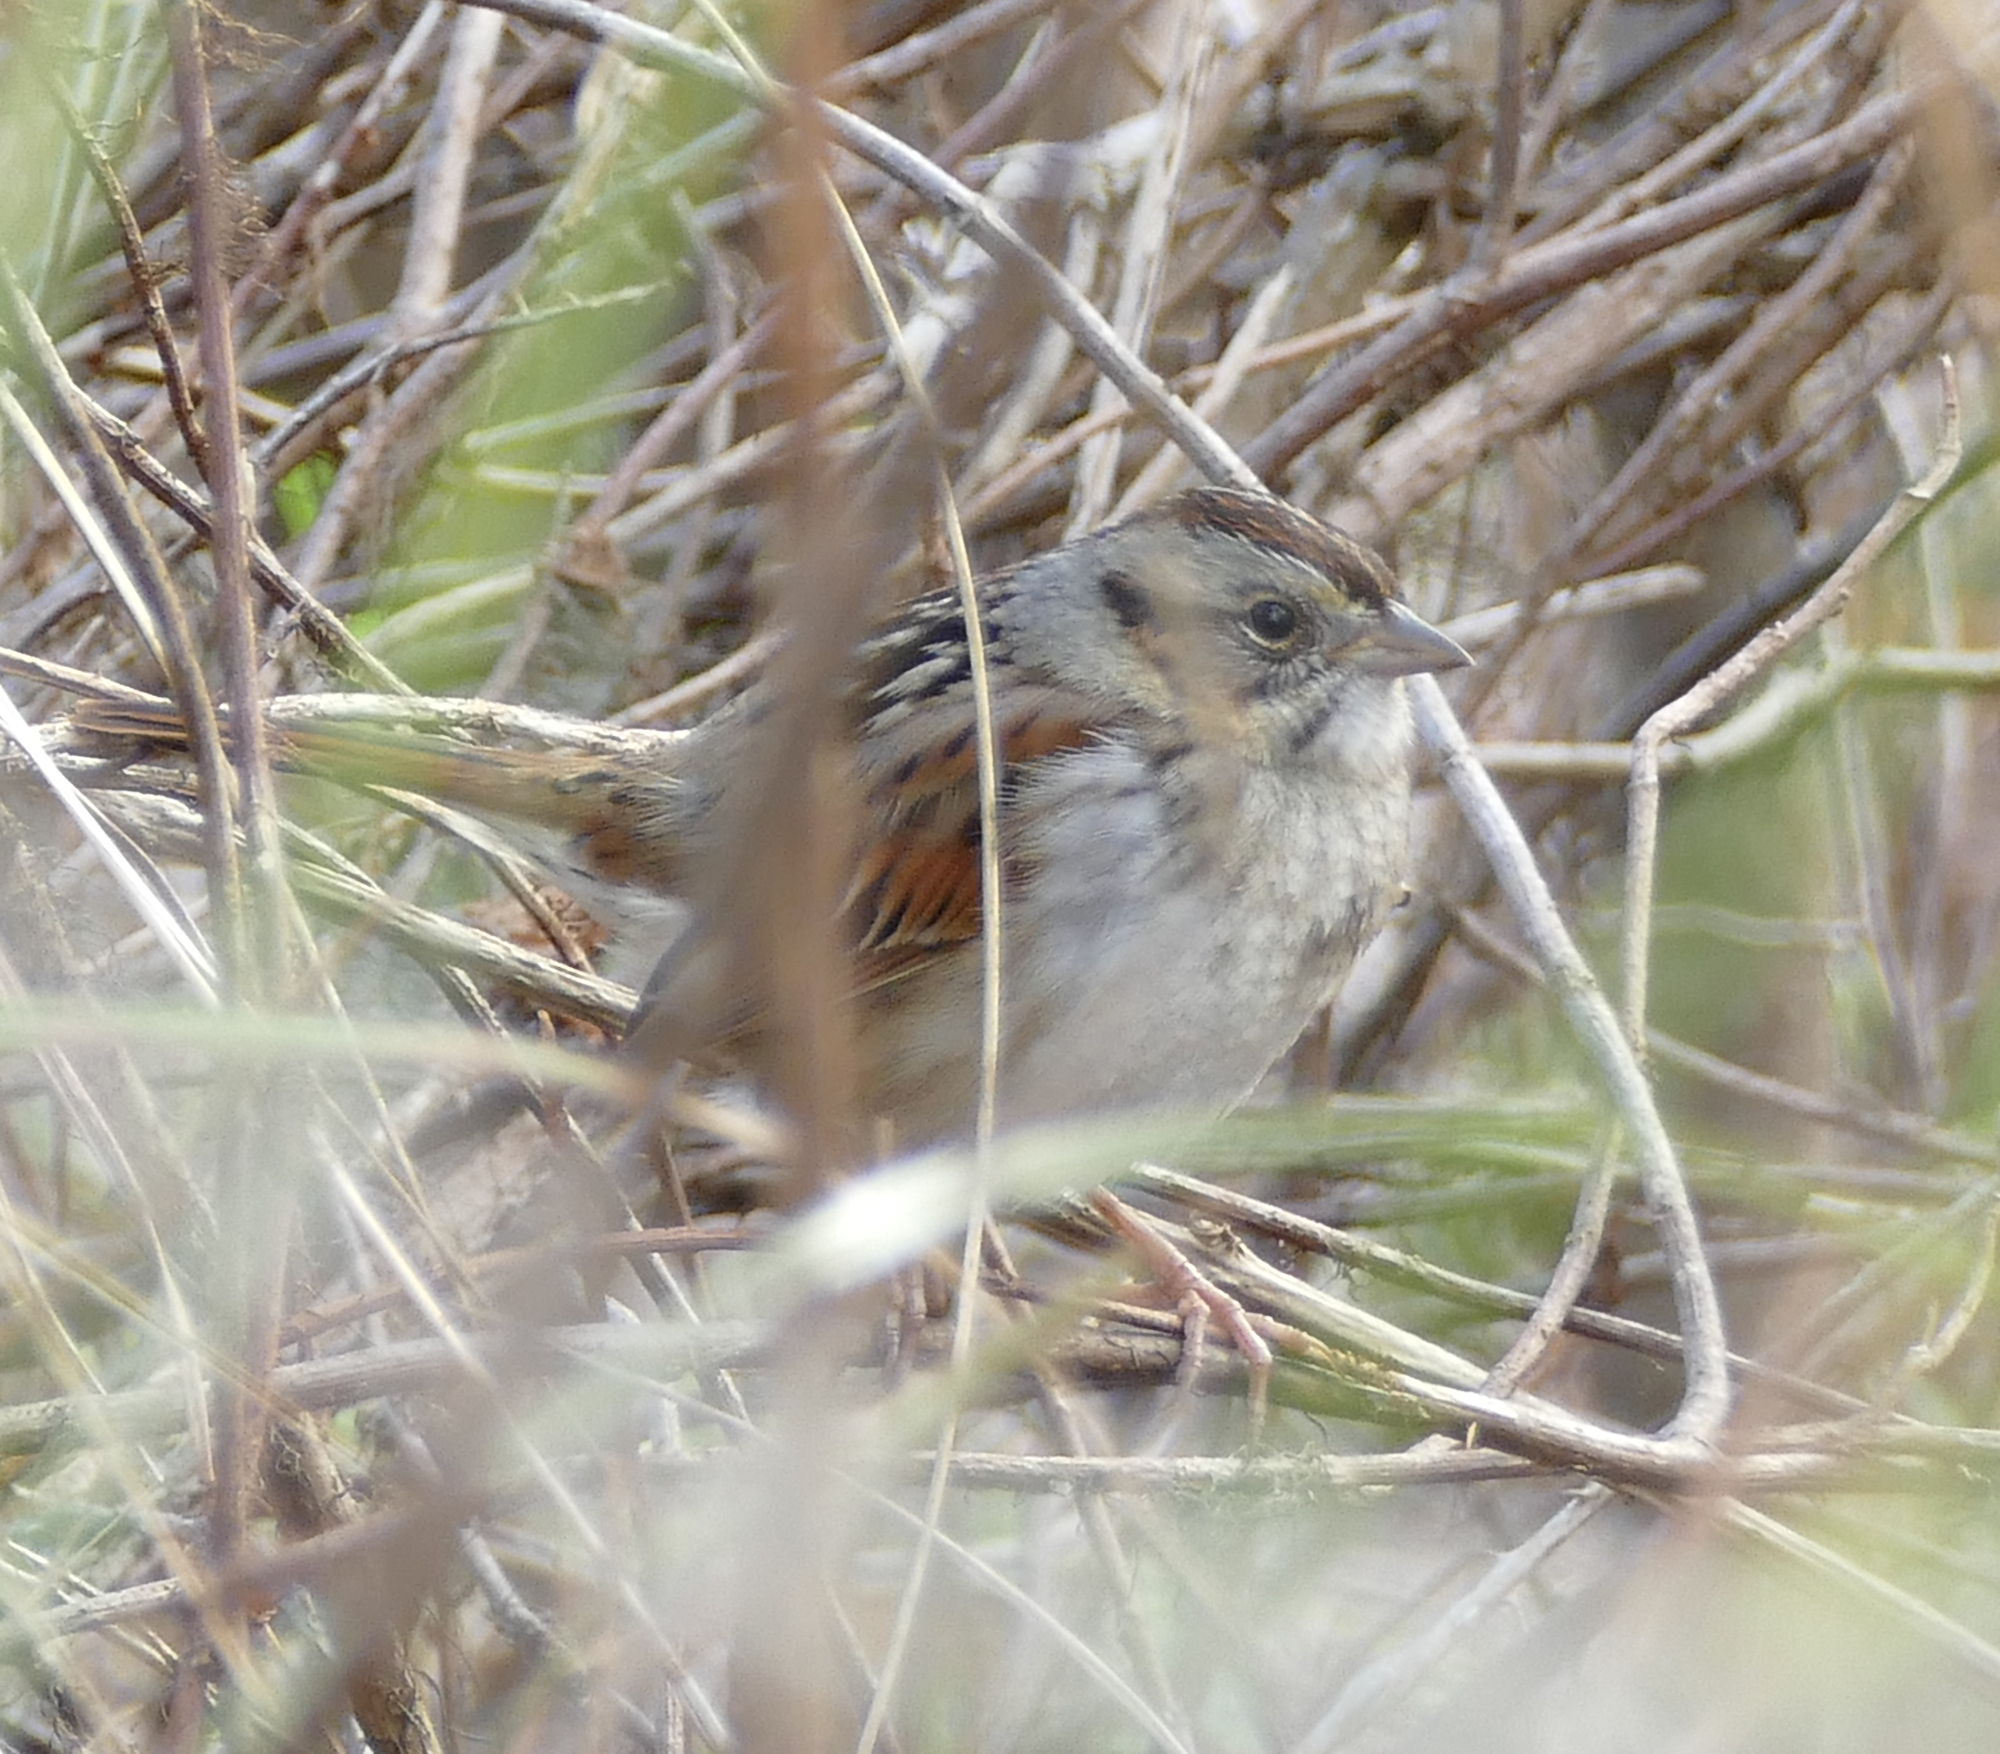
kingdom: Animalia
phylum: Chordata
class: Aves
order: Passeriformes
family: Passerellidae
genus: Melospiza
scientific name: Melospiza georgiana
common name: Swamp sparrow
